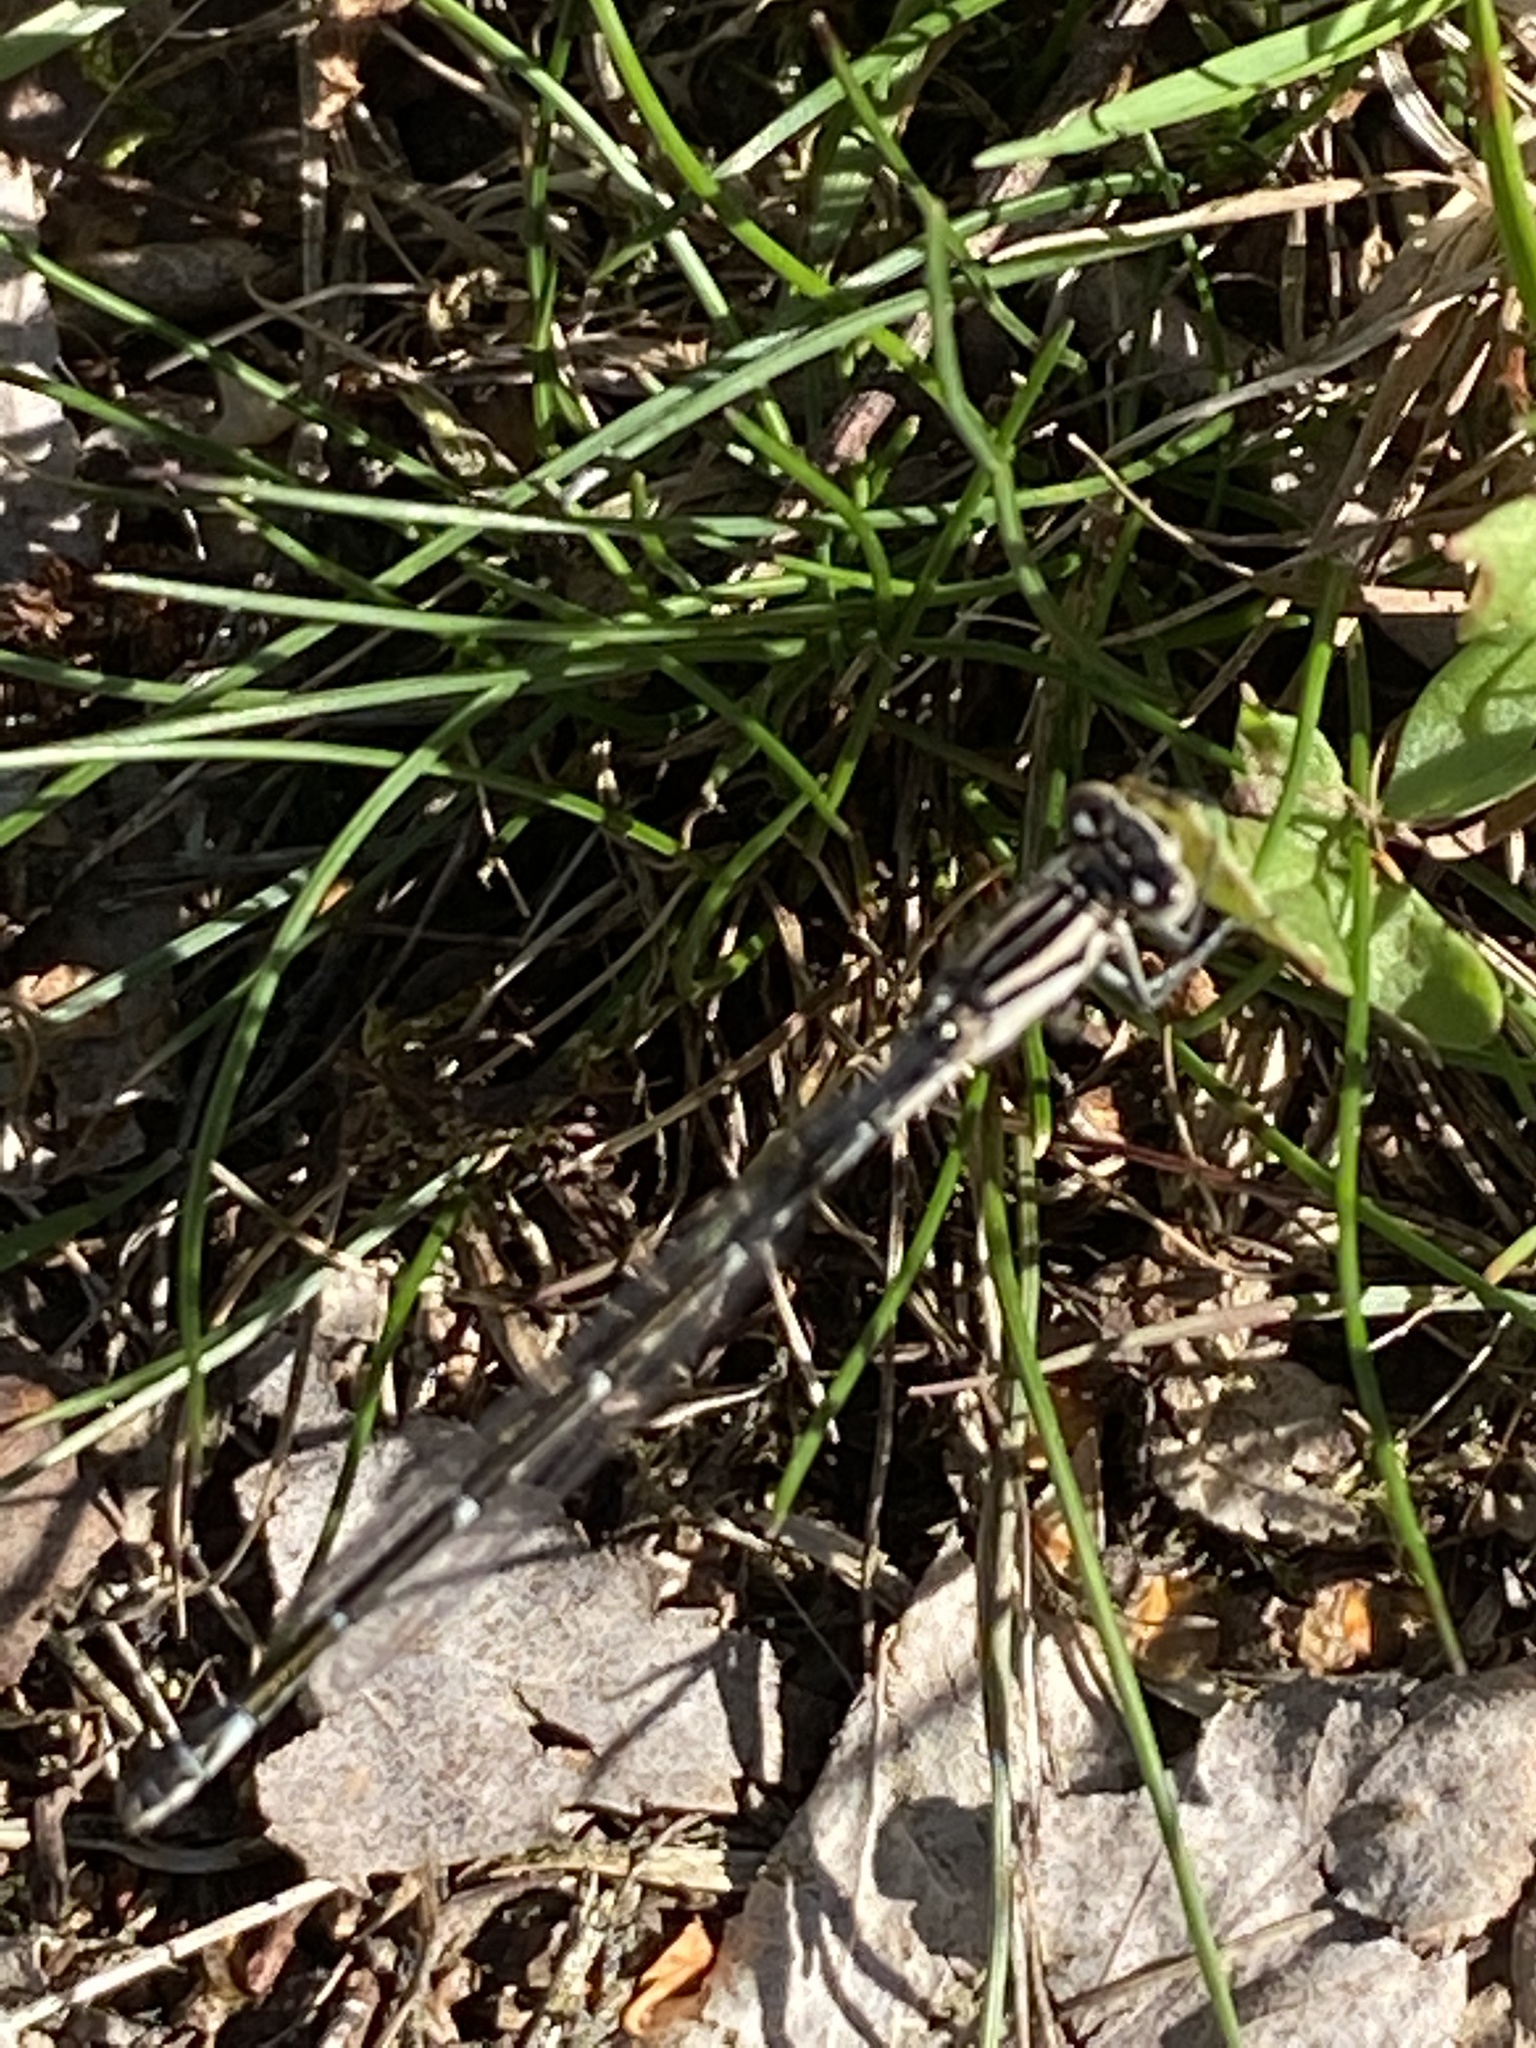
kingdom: Animalia
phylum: Arthropoda
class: Insecta
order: Odonata
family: Coenagrionidae
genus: Enallagma
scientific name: Enallagma cyathigerum
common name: Common blue damselfly
